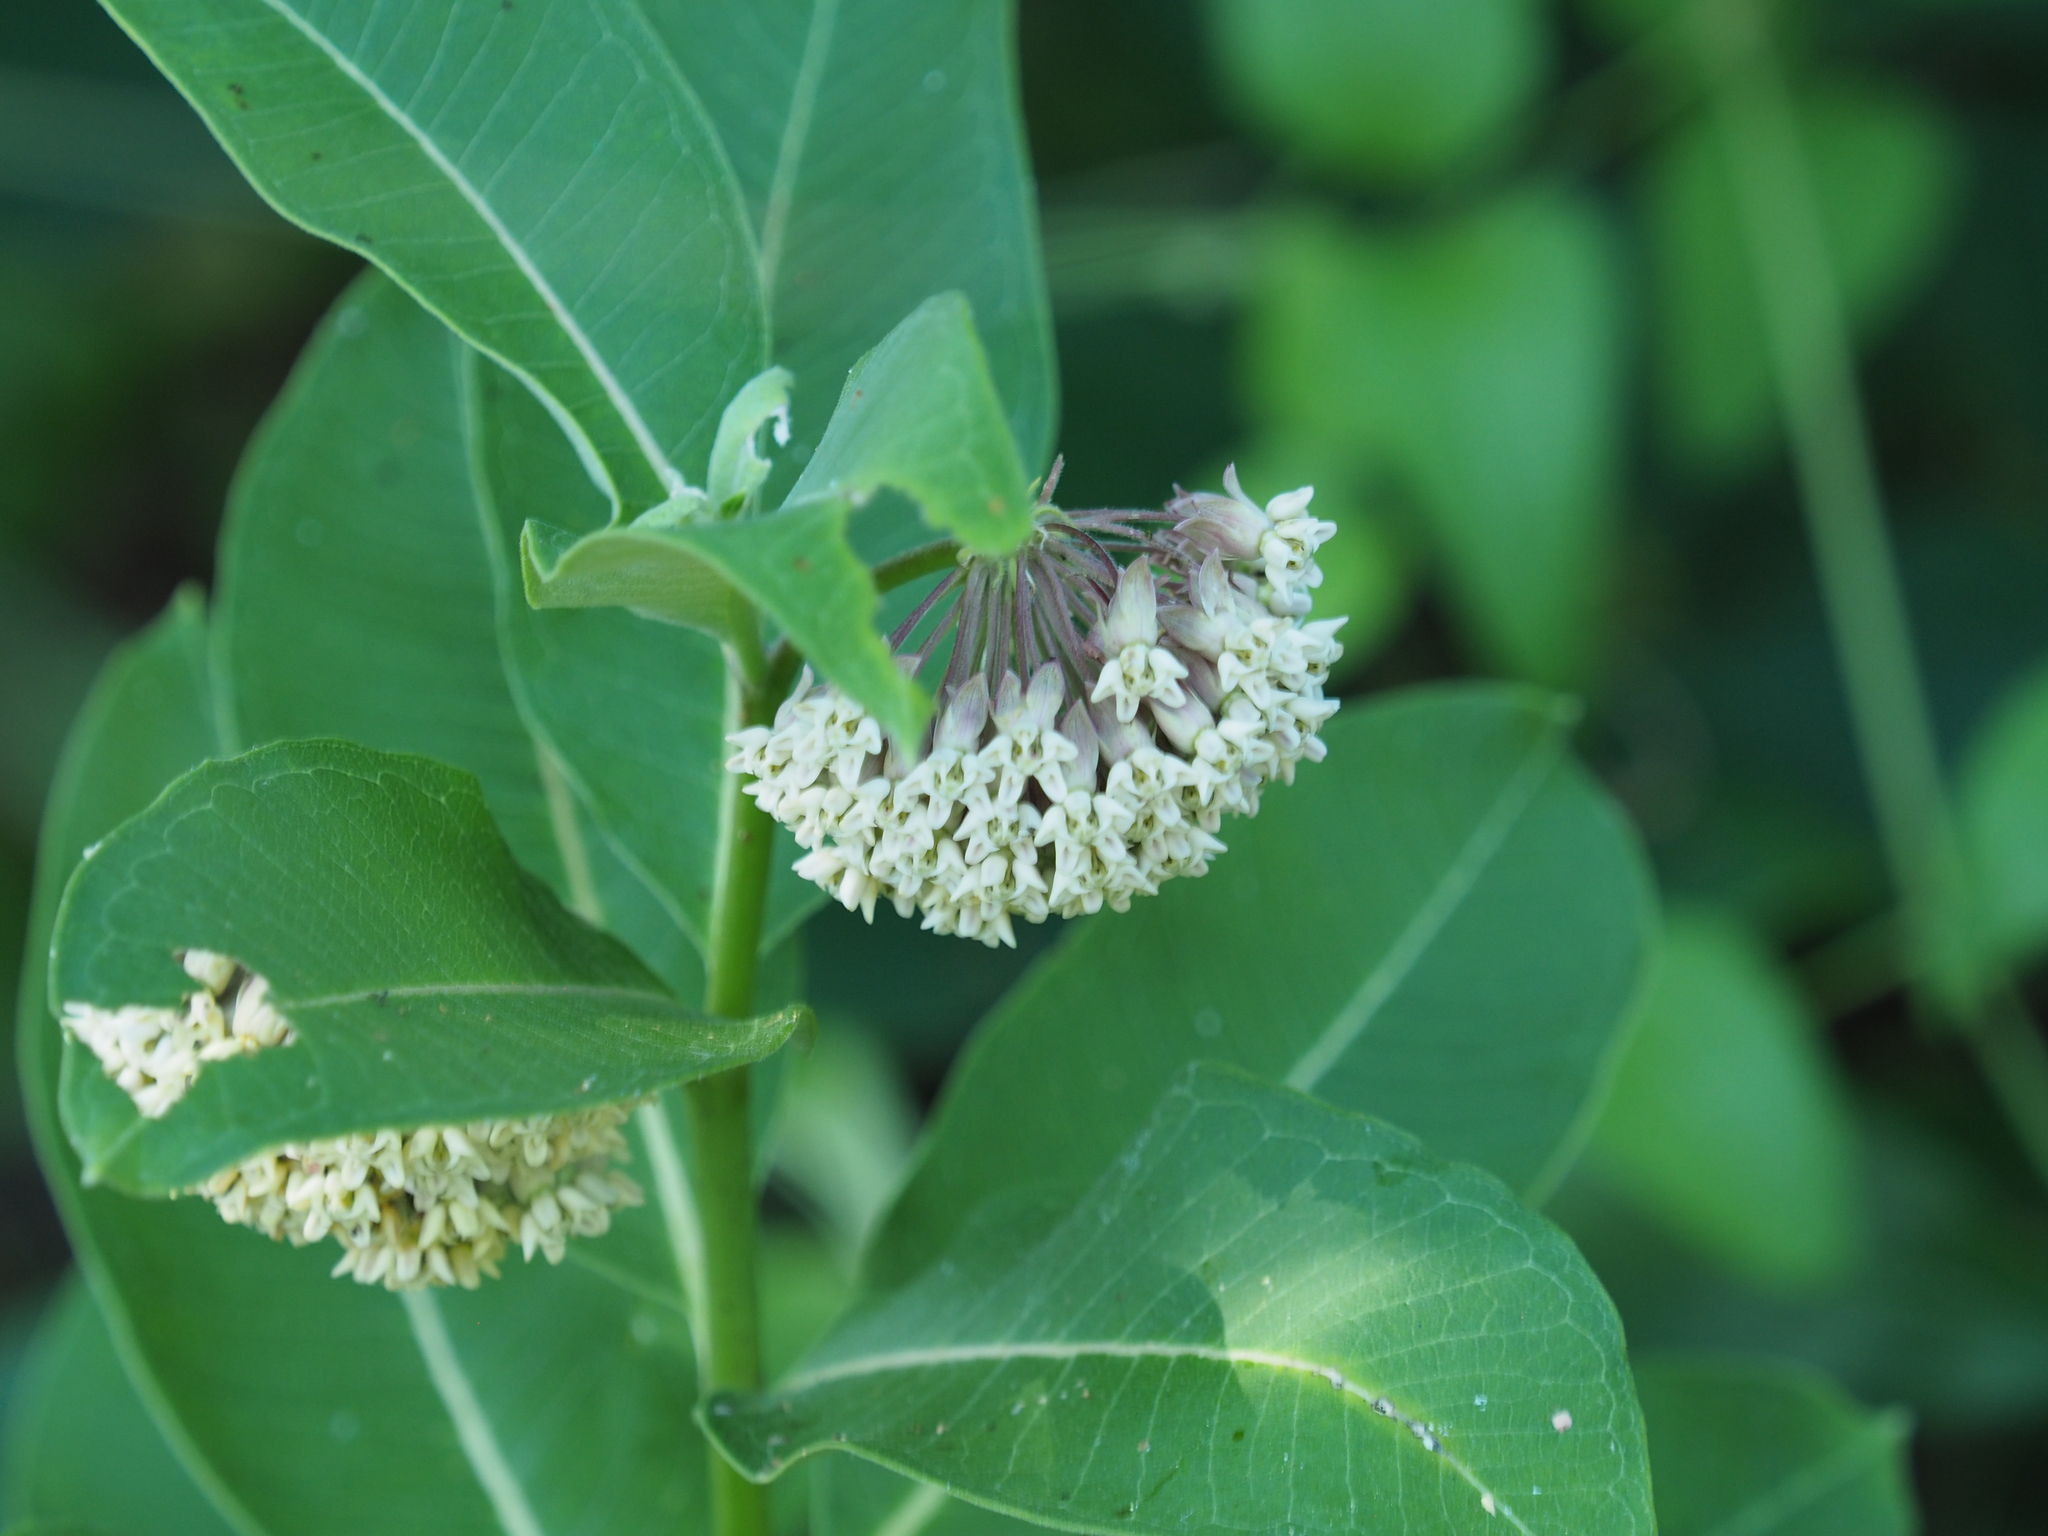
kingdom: Plantae
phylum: Tracheophyta
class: Magnoliopsida
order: Gentianales
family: Apocynaceae
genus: Asclepias
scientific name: Asclepias syriaca
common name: Common milkweed
